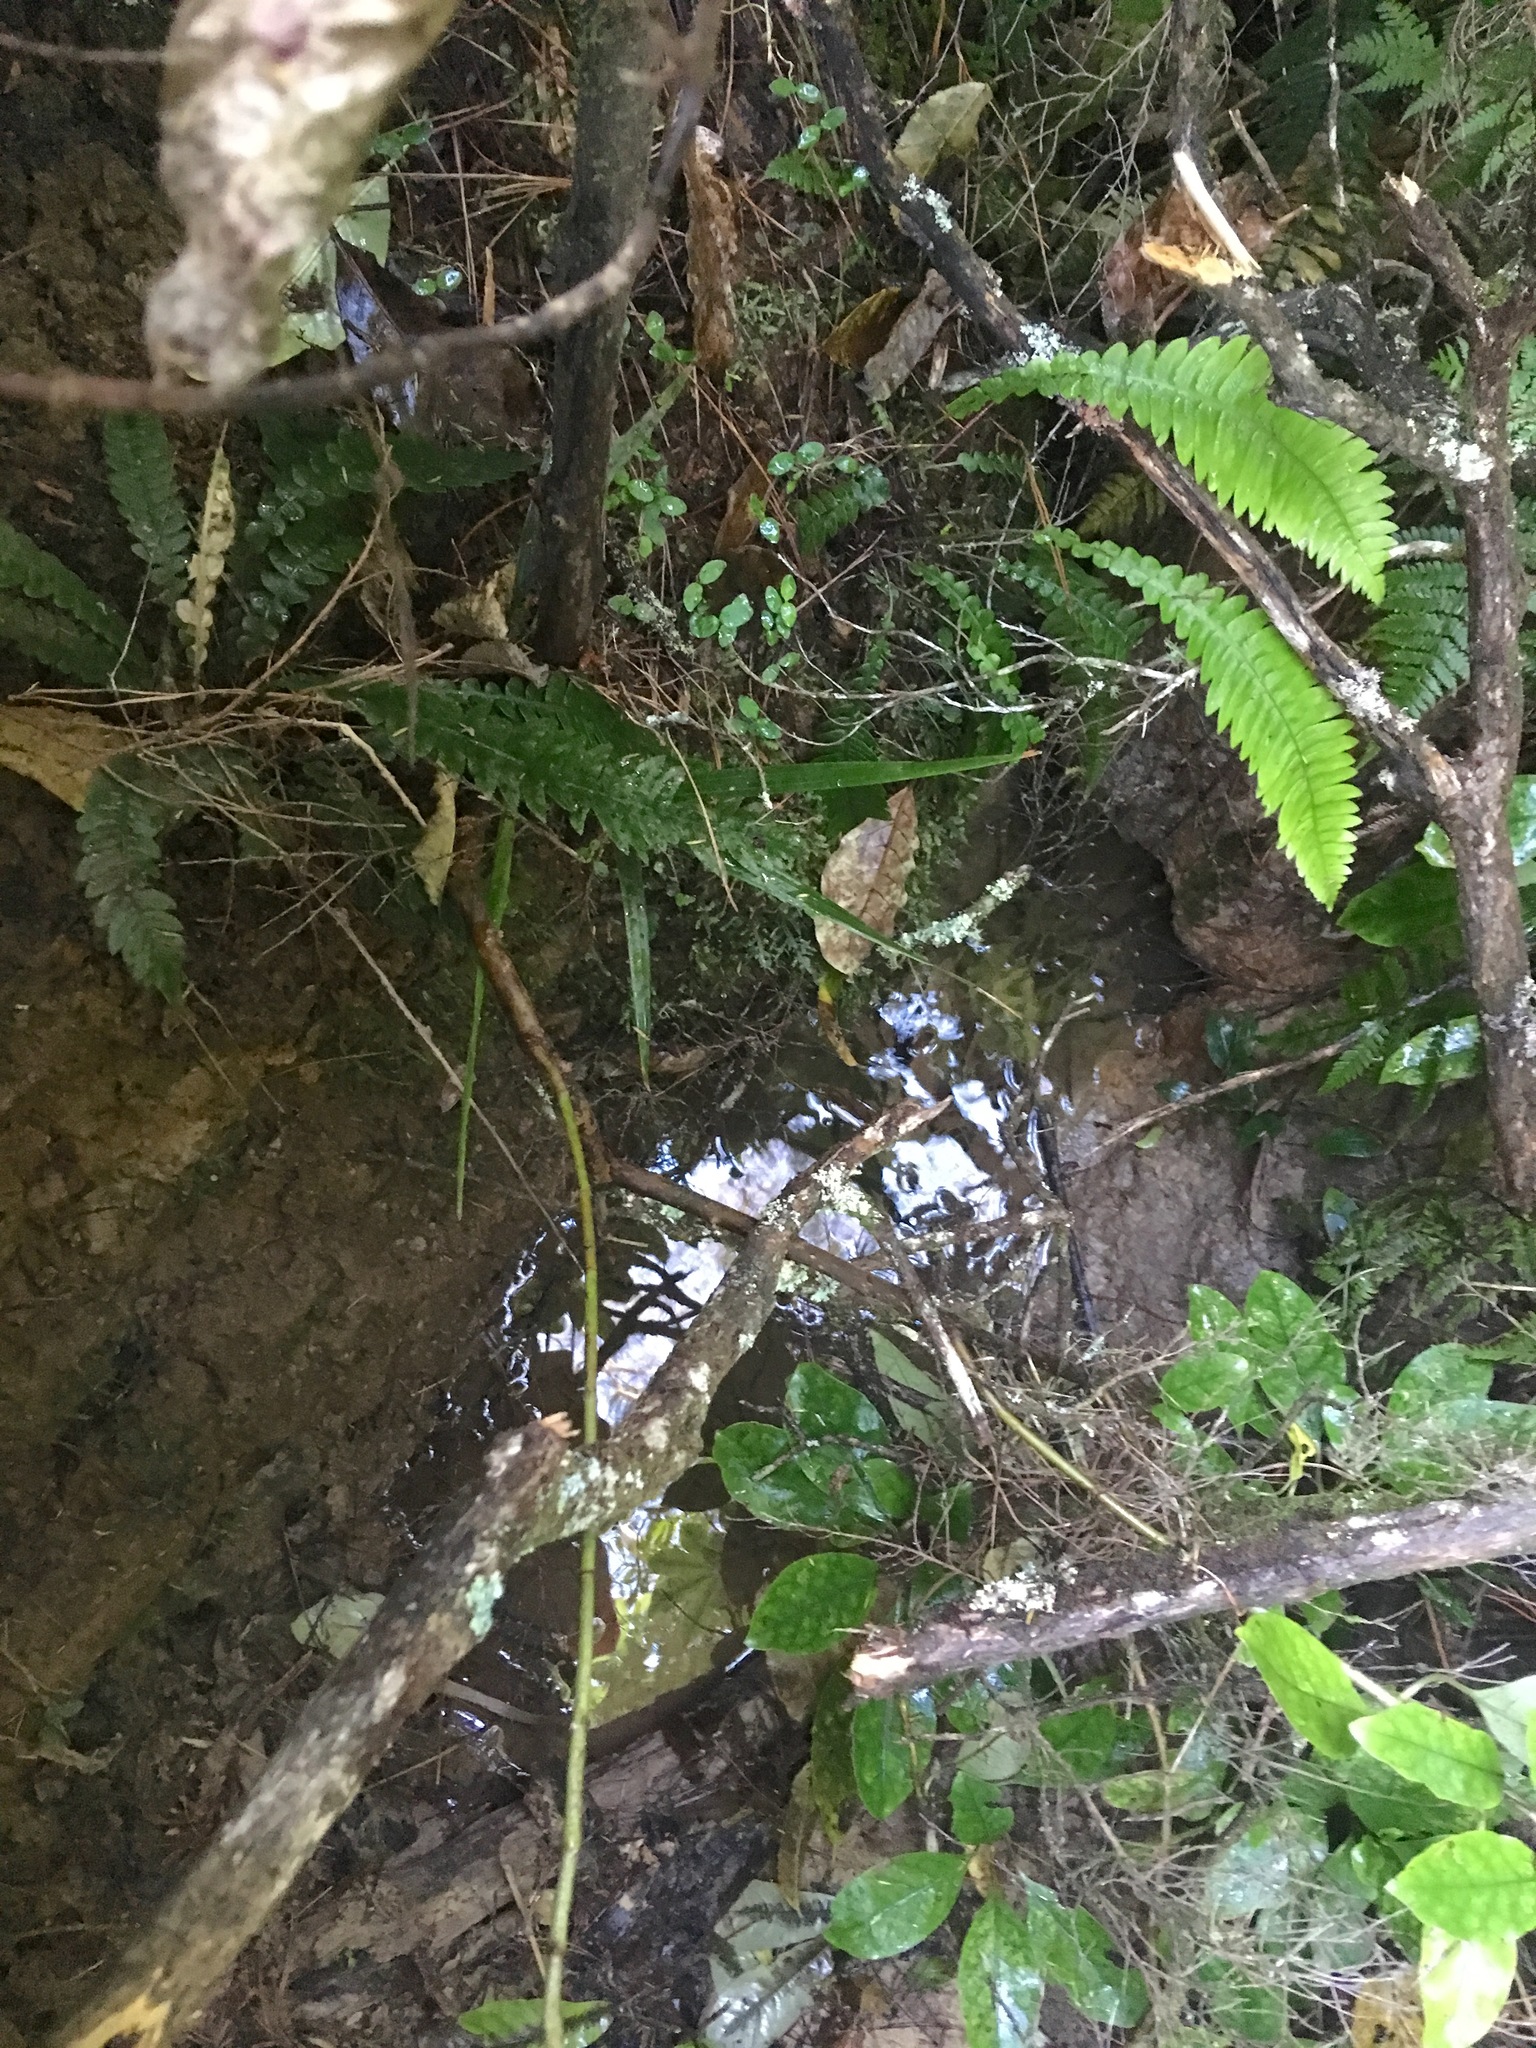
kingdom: Plantae
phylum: Tracheophyta
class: Polypodiopsida
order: Polypodiales
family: Blechnaceae
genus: Austroblechnum
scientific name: Austroblechnum lanceolatum
